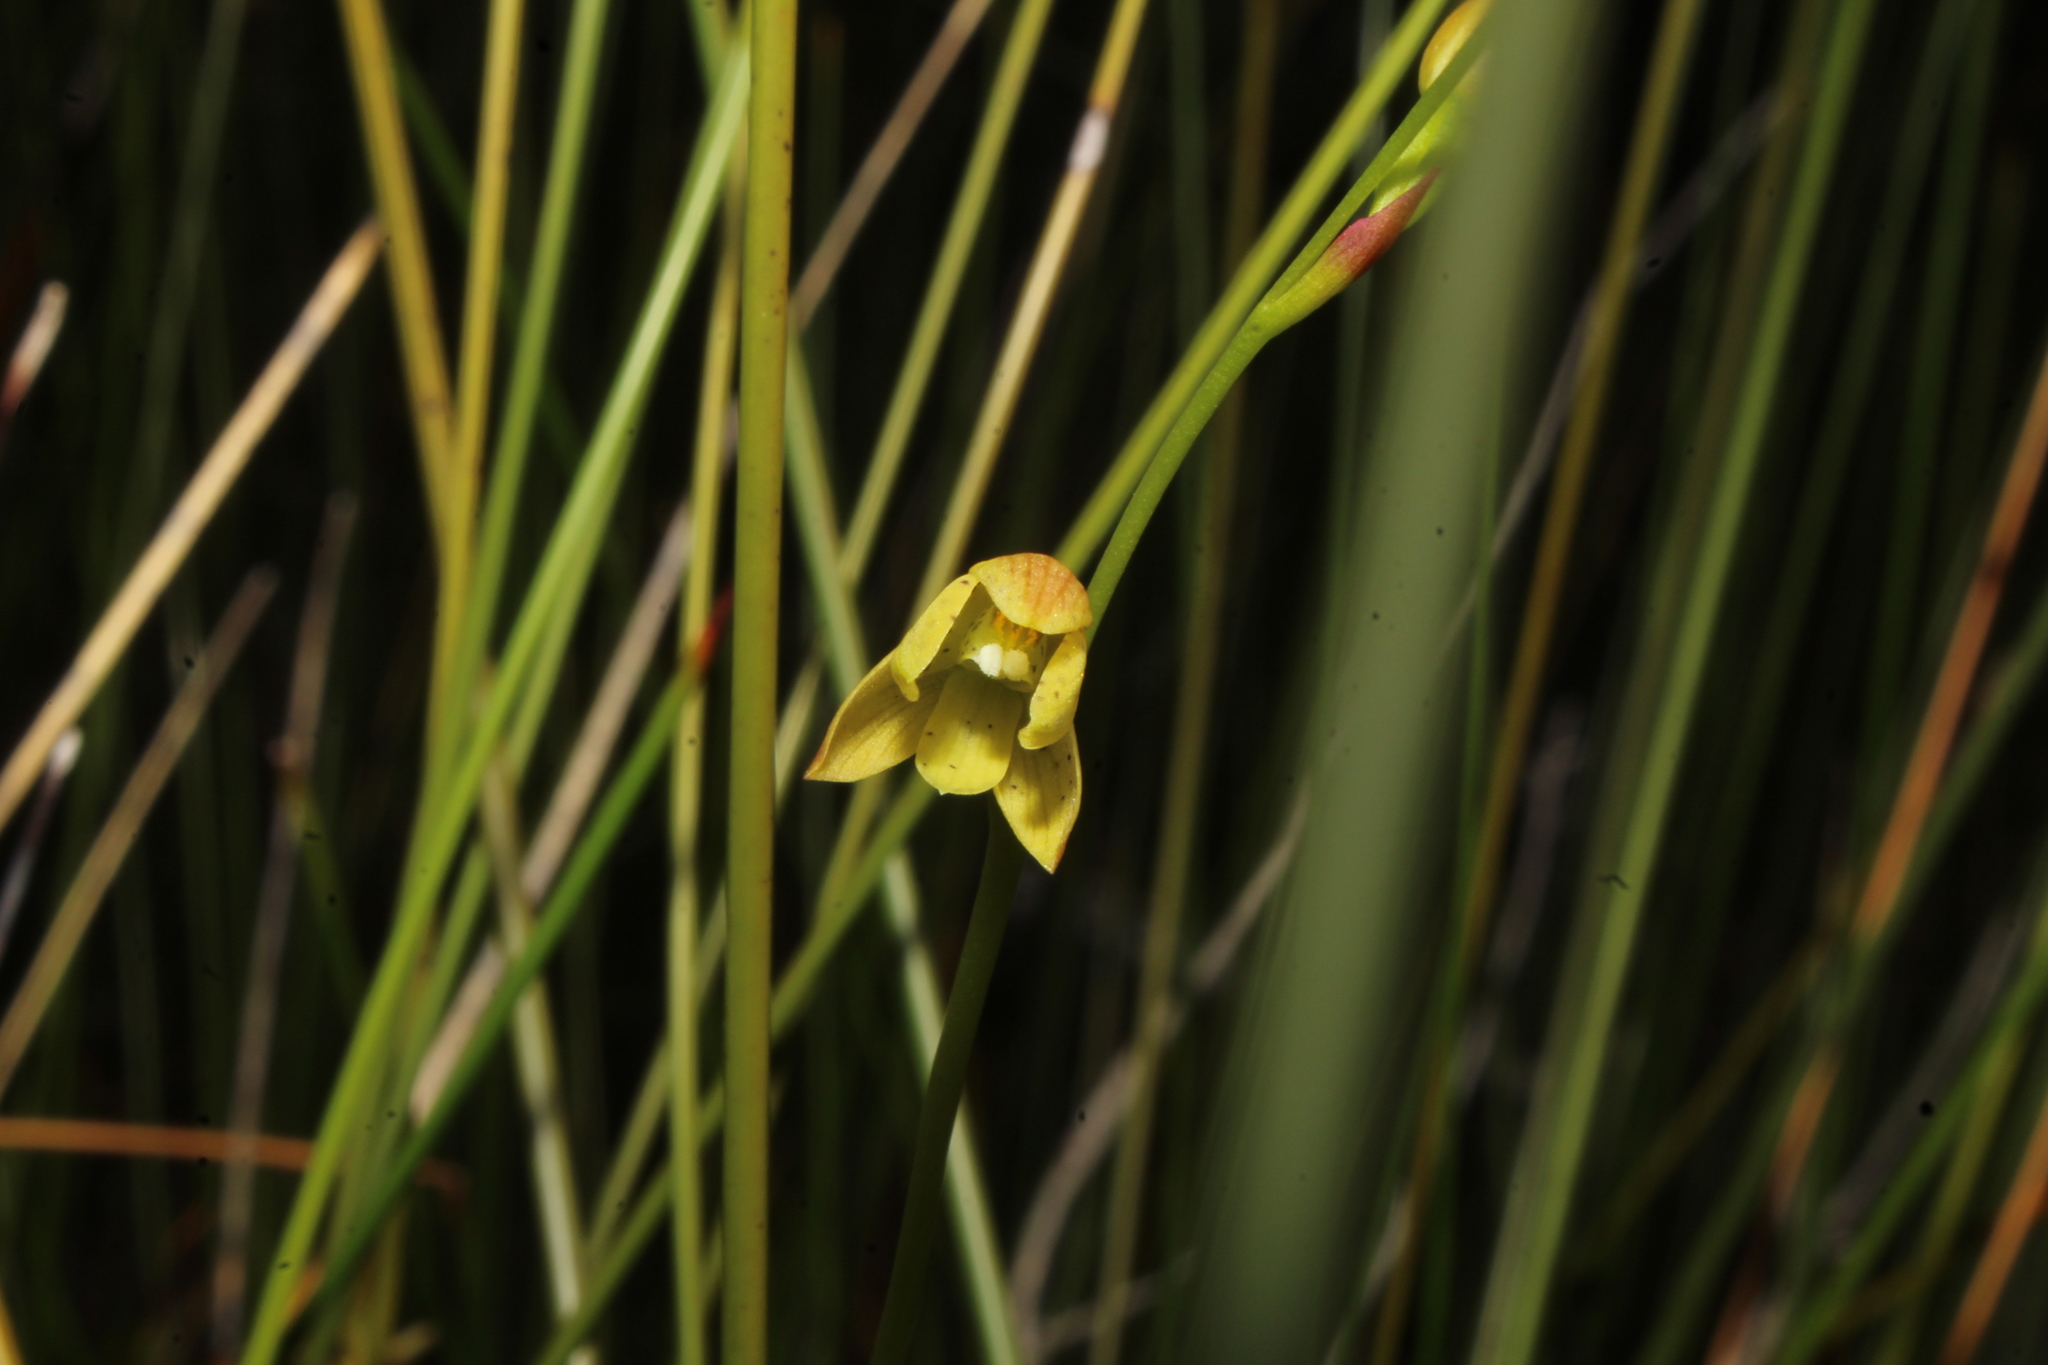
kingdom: Plantae
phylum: Tracheophyta
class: Liliopsida
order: Asparagales
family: Orchidaceae
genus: Thelymitra
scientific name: Thelymitra tigrina
